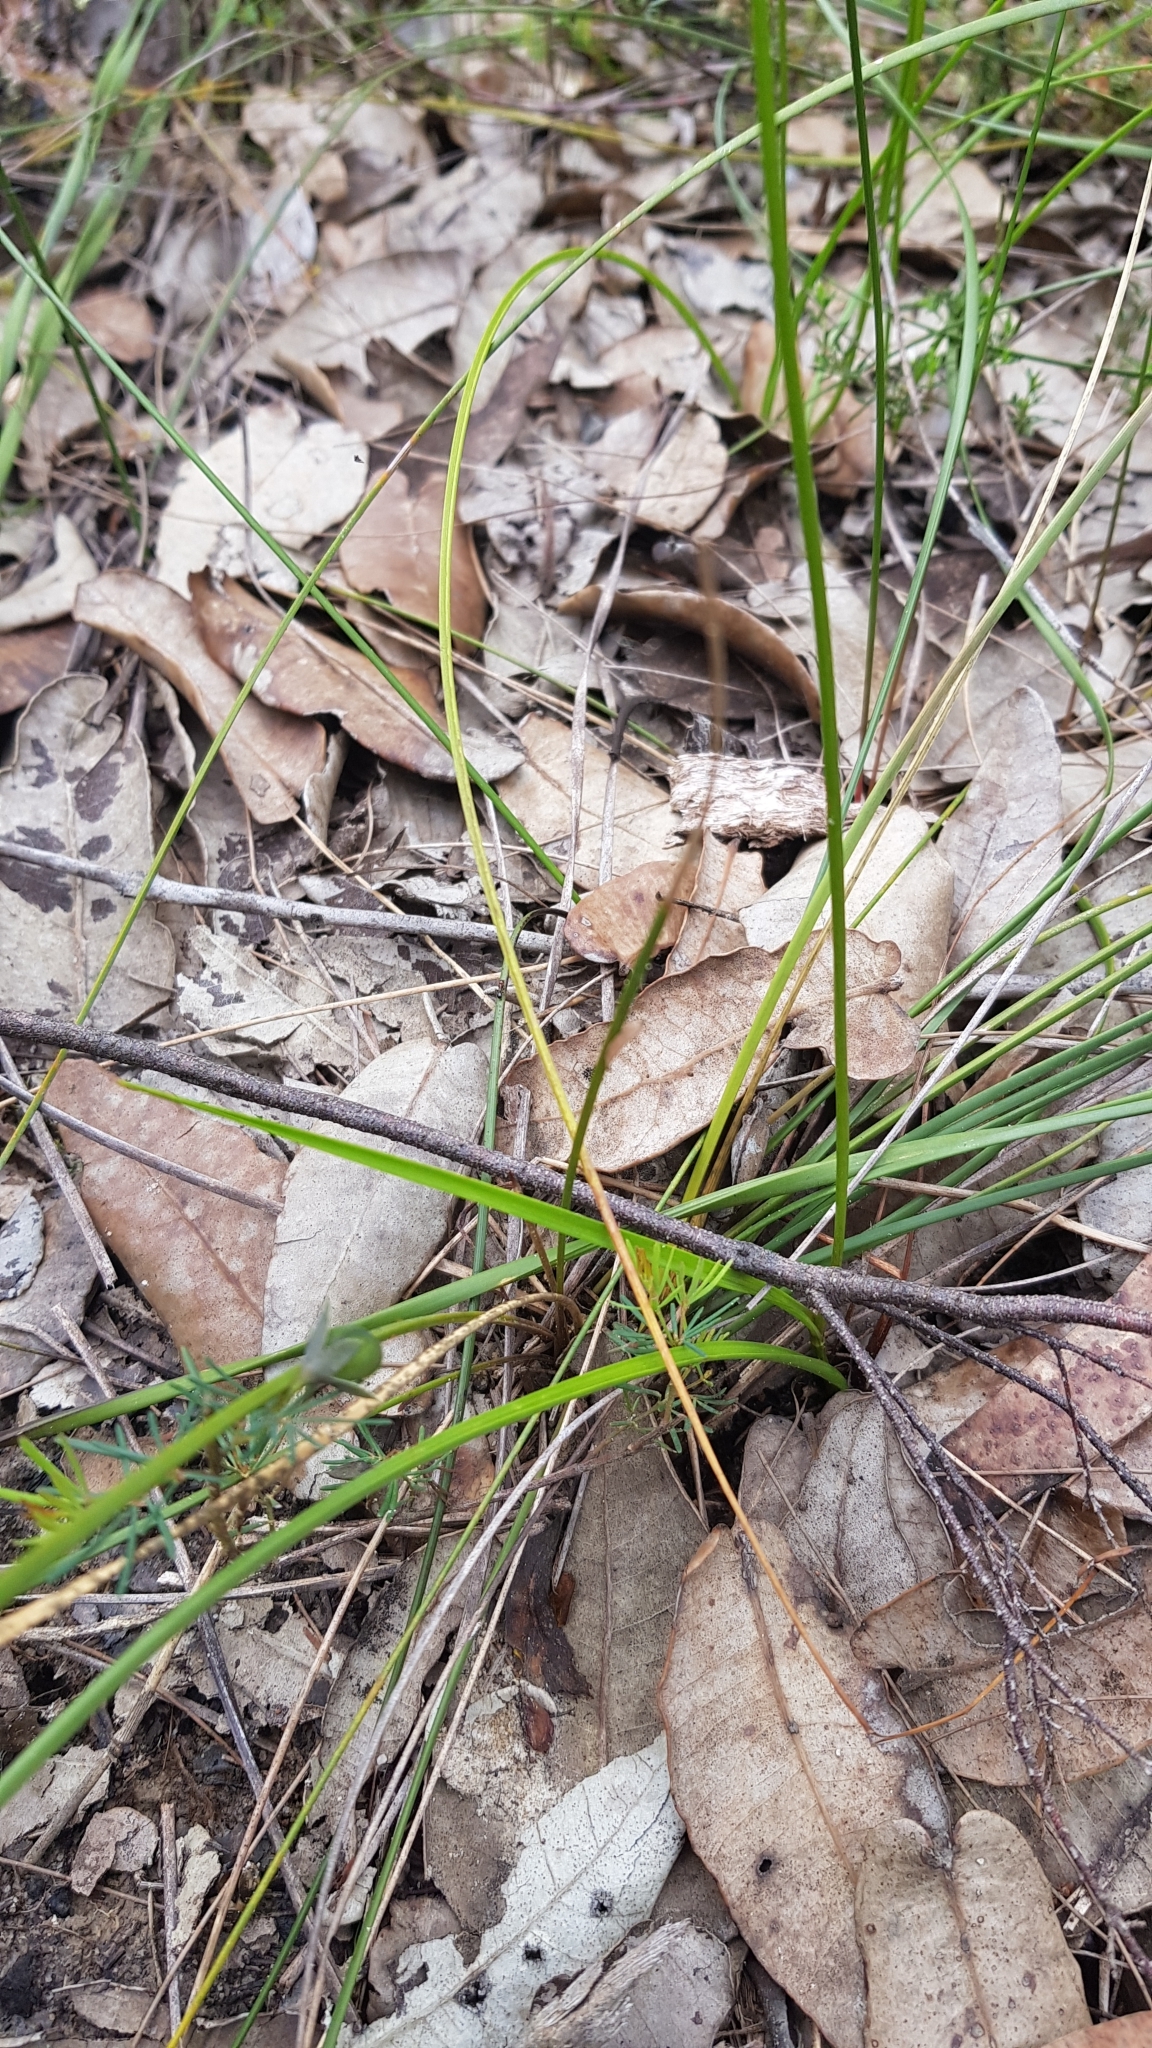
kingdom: Plantae
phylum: Tracheophyta
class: Liliopsida
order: Liliales
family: Colchicaceae
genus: Burchardia
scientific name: Burchardia umbellata
